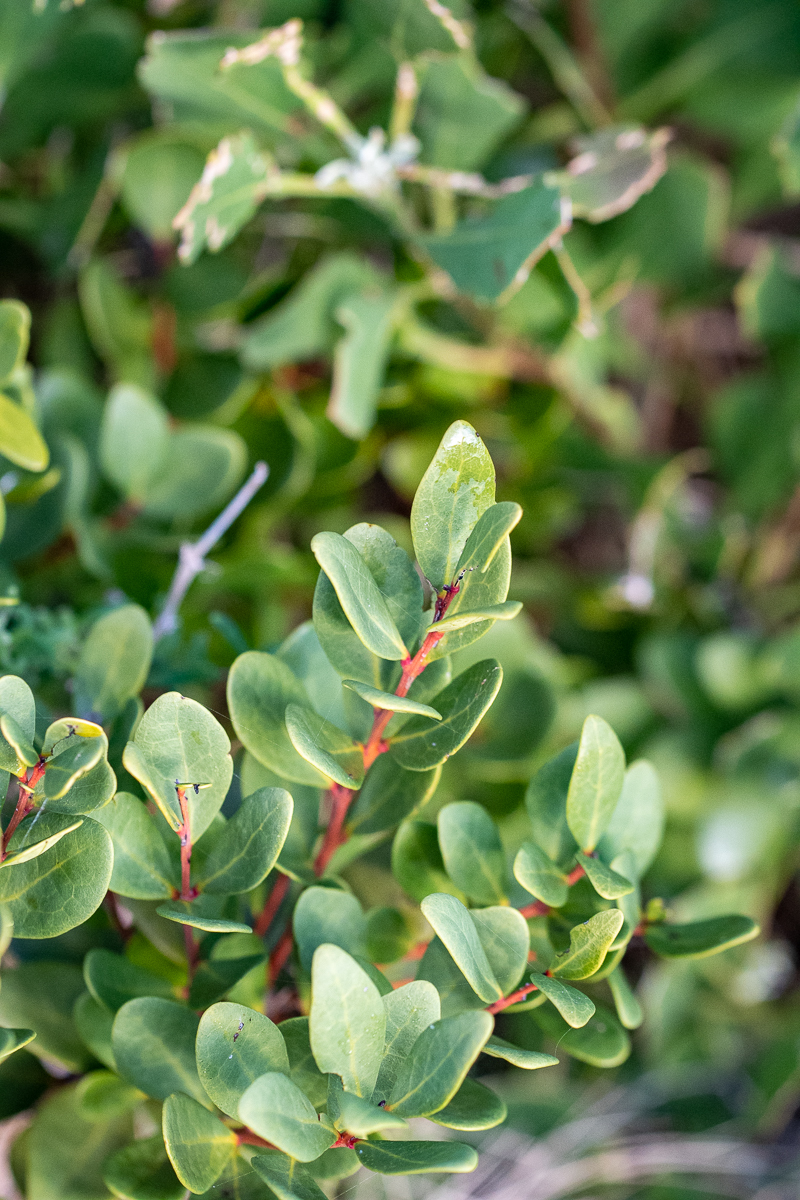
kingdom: Plantae
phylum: Tracheophyta
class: Magnoliopsida
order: Ericales
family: Ebenaceae
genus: Euclea
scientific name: Euclea racemosa
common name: Dune guarri
